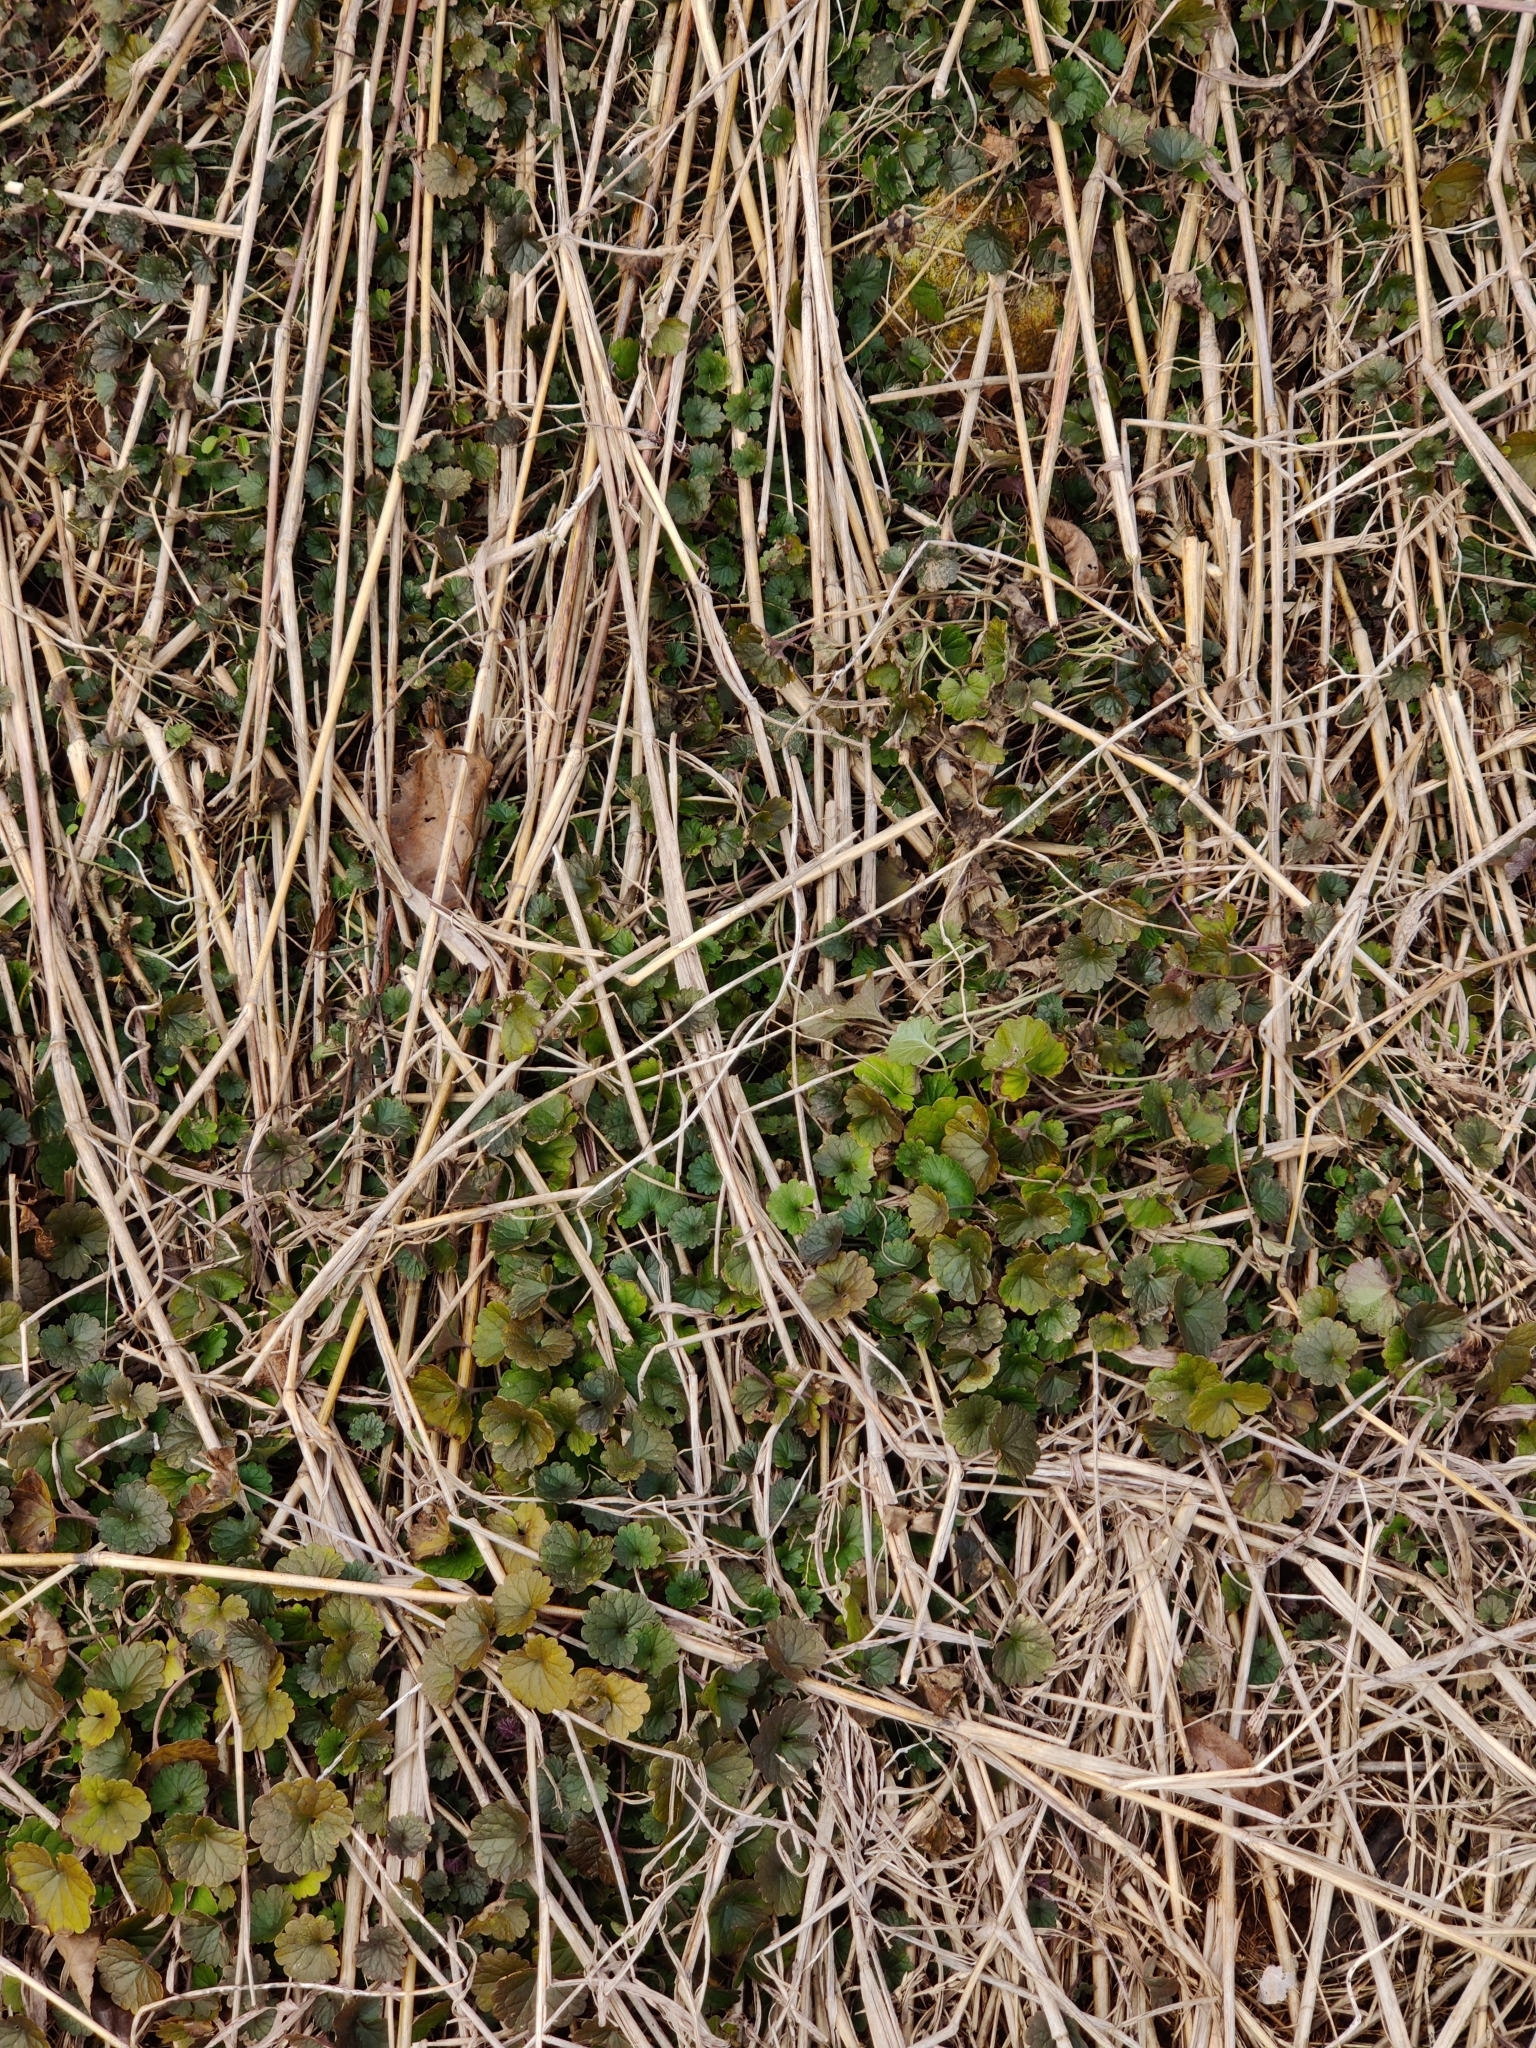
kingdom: Plantae
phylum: Tracheophyta
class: Magnoliopsida
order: Lamiales
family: Lamiaceae
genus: Glechoma
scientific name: Glechoma hederacea
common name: Ground ivy
